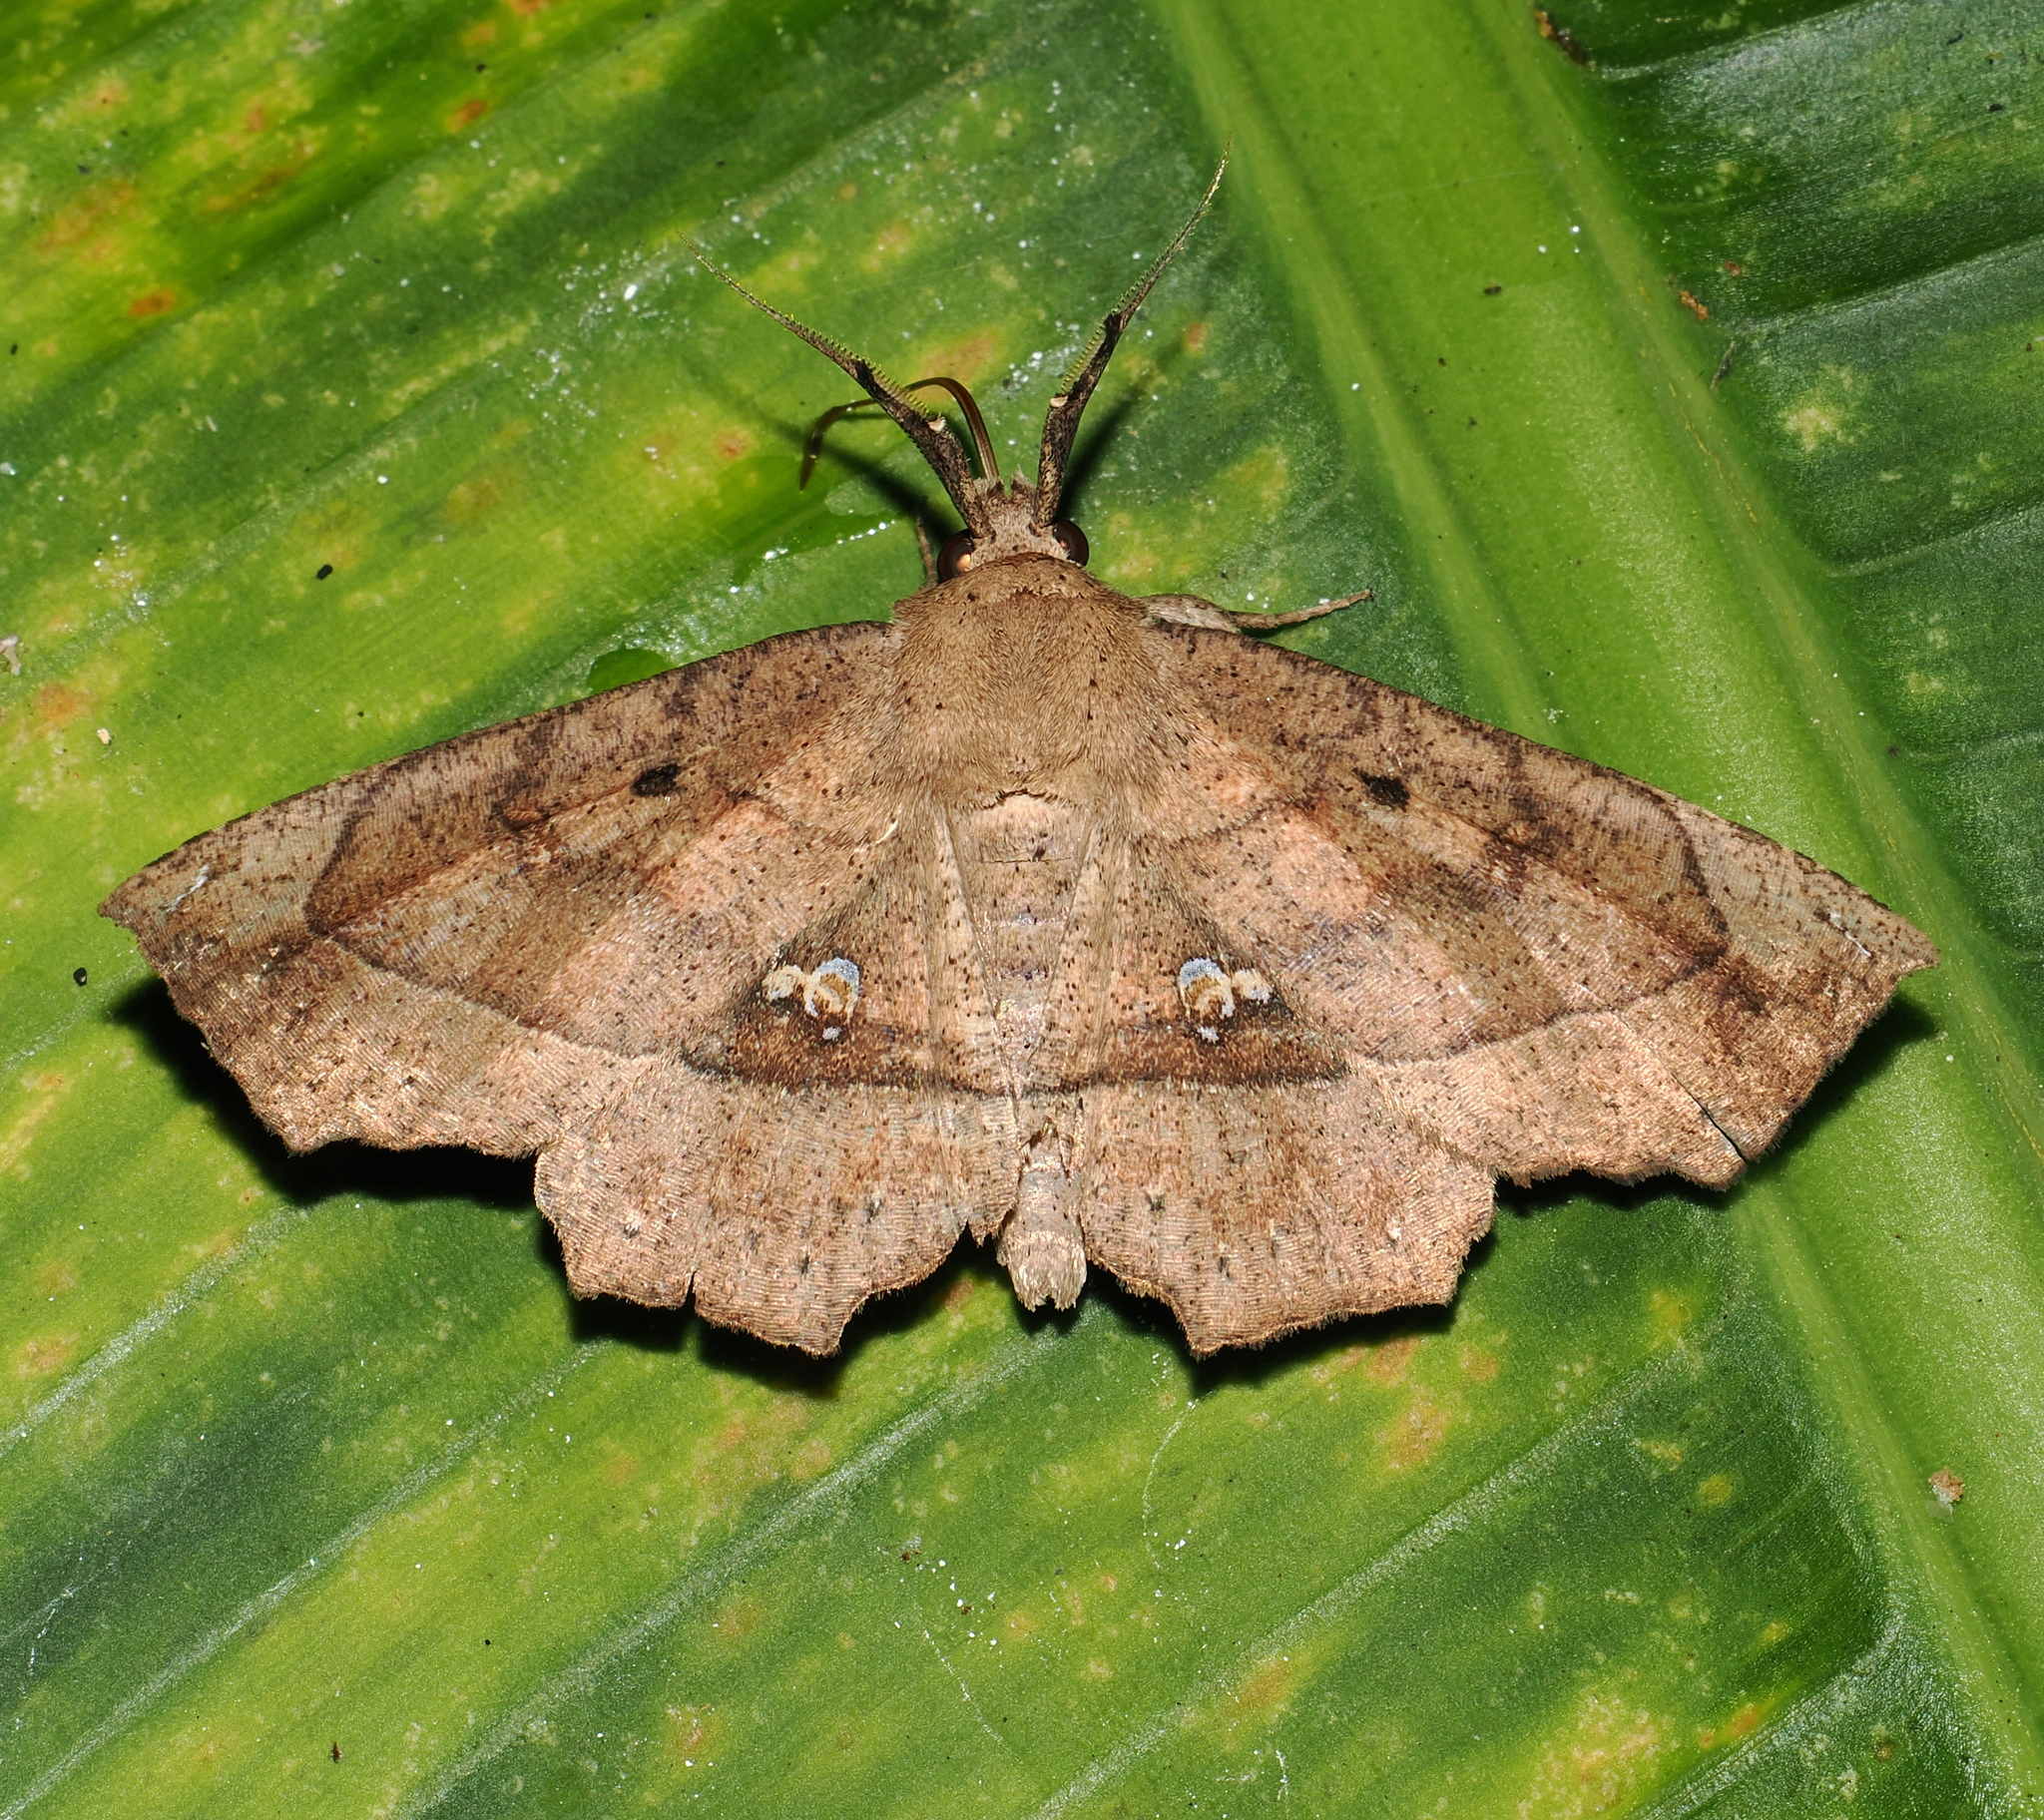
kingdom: Animalia
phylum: Arthropoda
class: Insecta
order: Lepidoptera
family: Erebidae
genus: Syllectra
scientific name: Syllectra congemmalis
